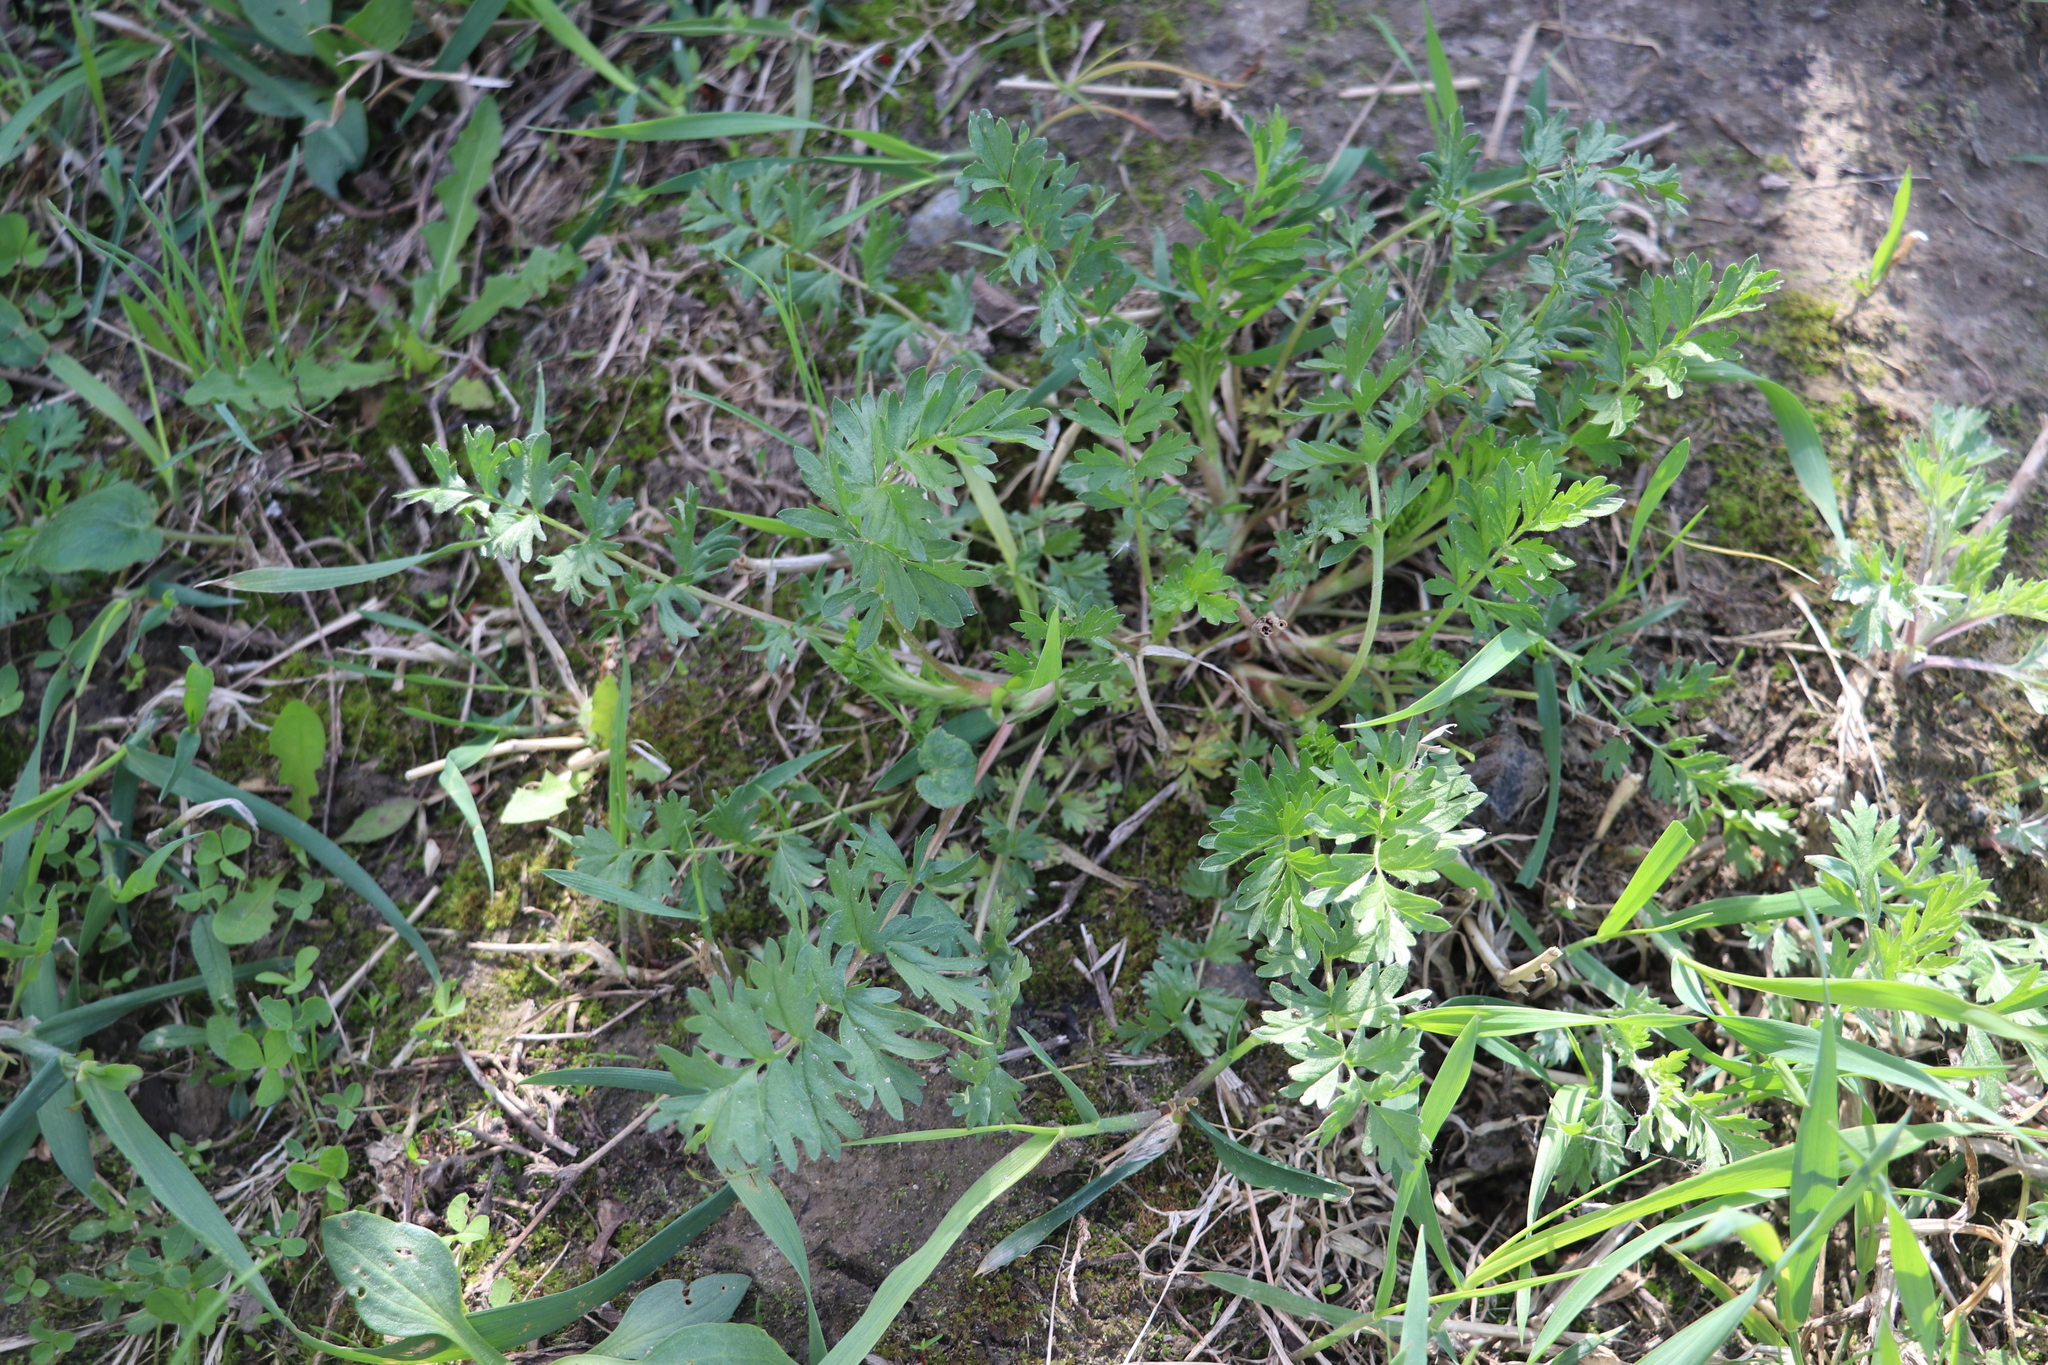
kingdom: Plantae
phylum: Tracheophyta
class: Magnoliopsida
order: Rosales
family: Rosaceae
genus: Potentilla
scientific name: Potentilla supina
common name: Prostrate cinquefoil
